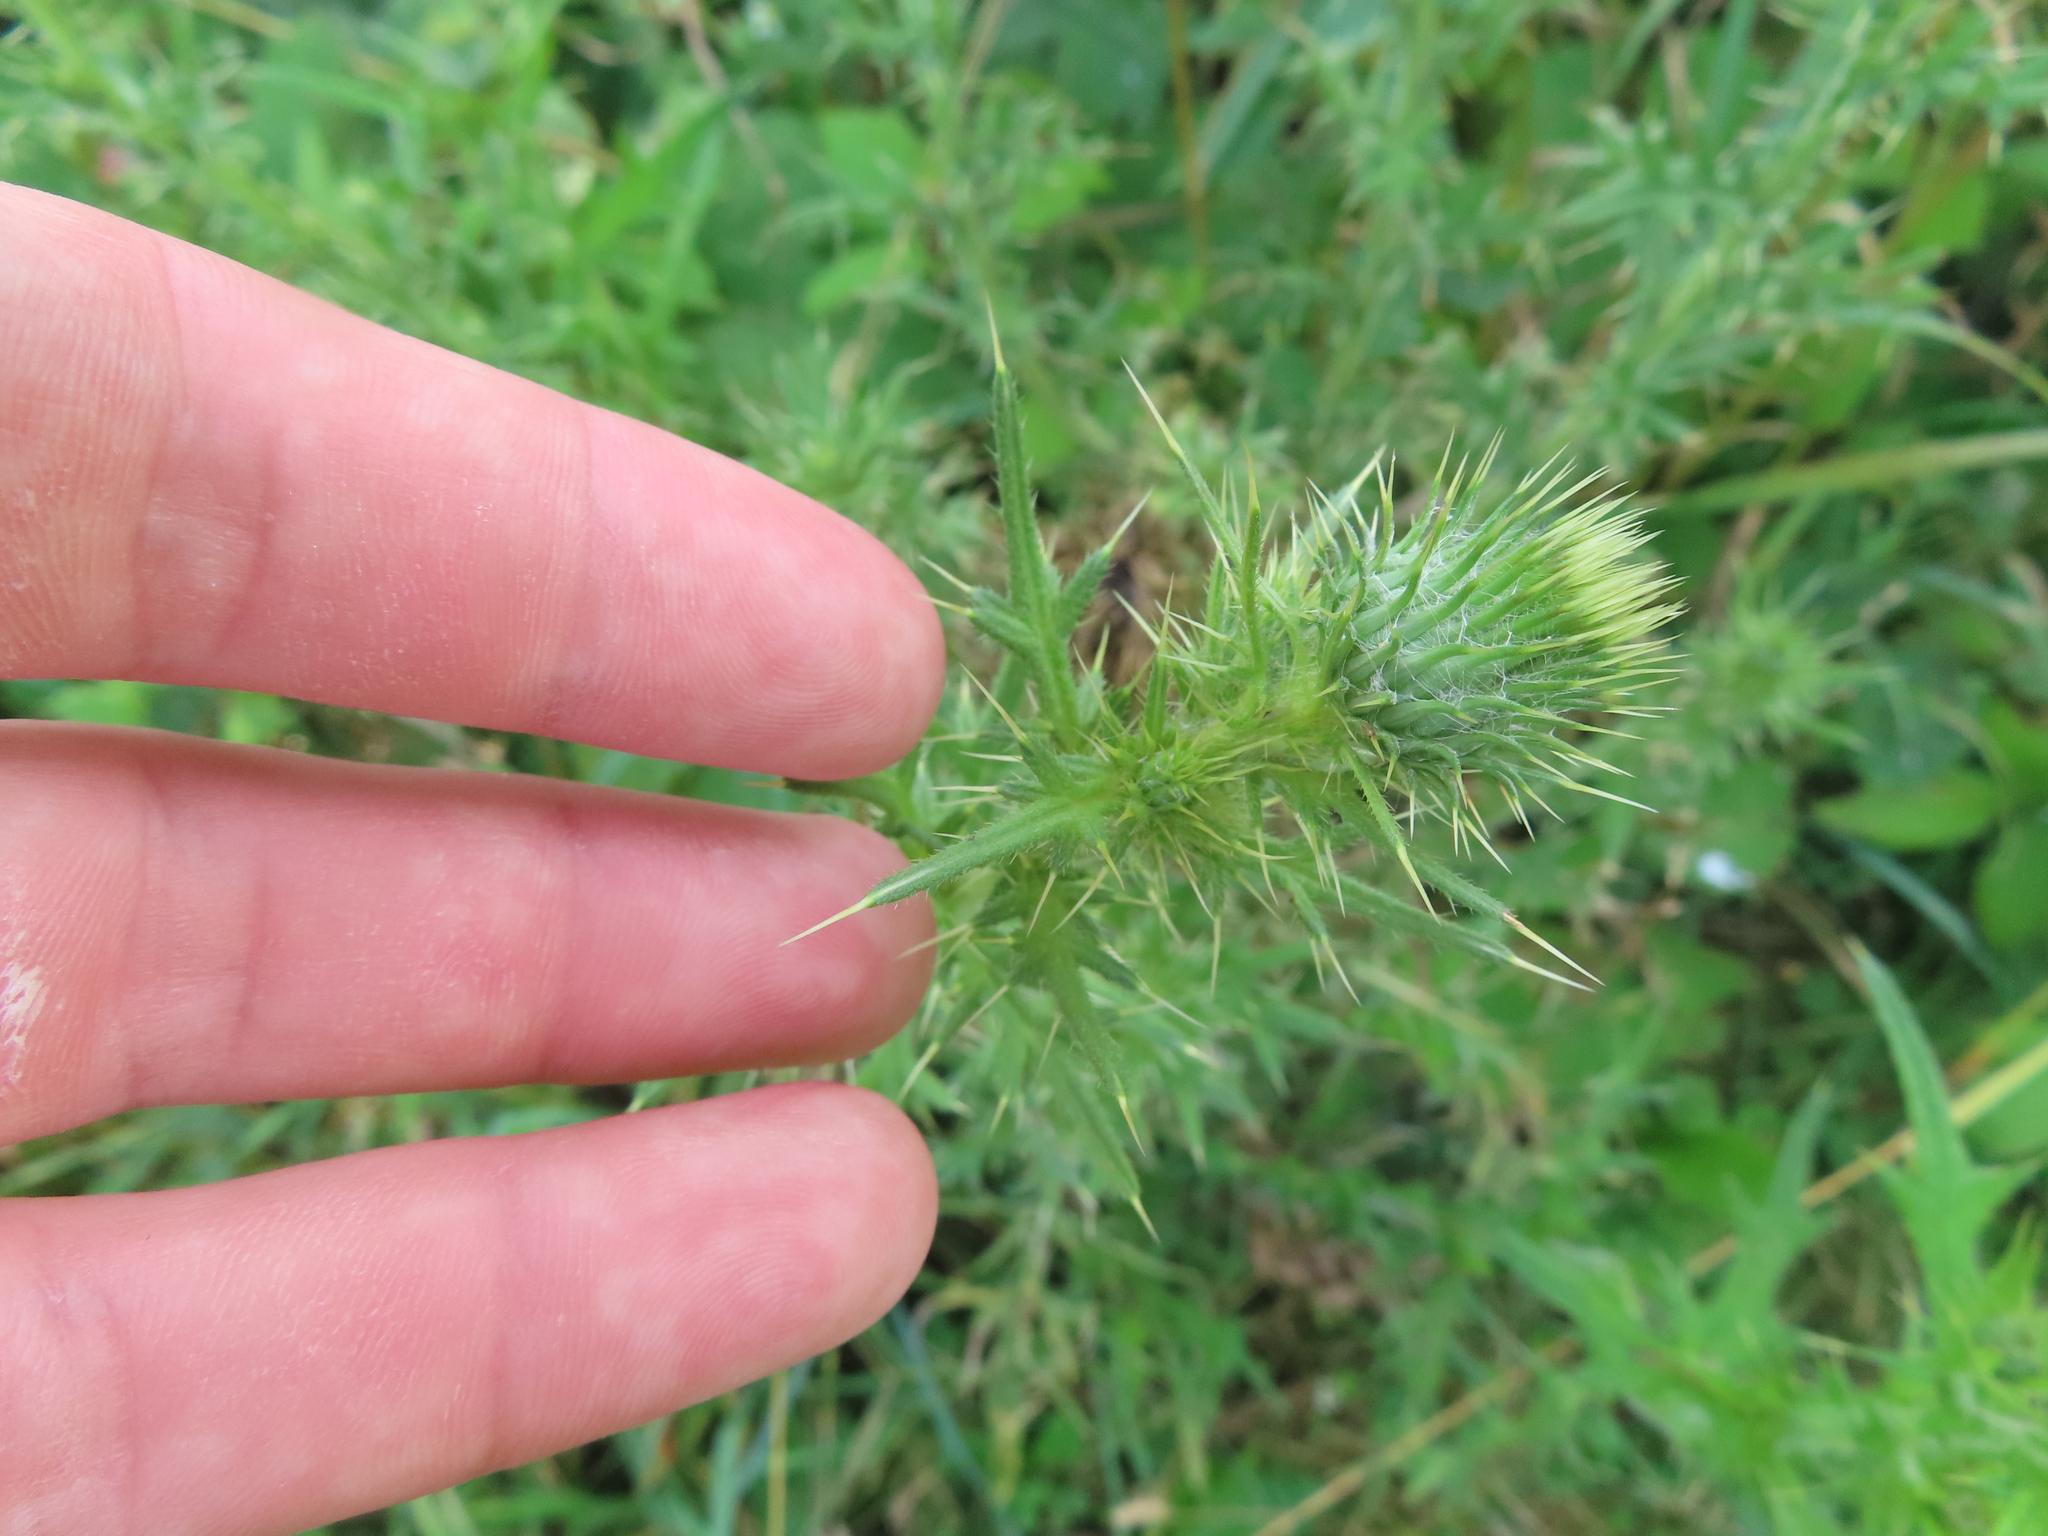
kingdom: Plantae
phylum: Tracheophyta
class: Magnoliopsida
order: Asterales
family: Asteraceae
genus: Cirsium
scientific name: Cirsium vulgare
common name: Bull thistle
